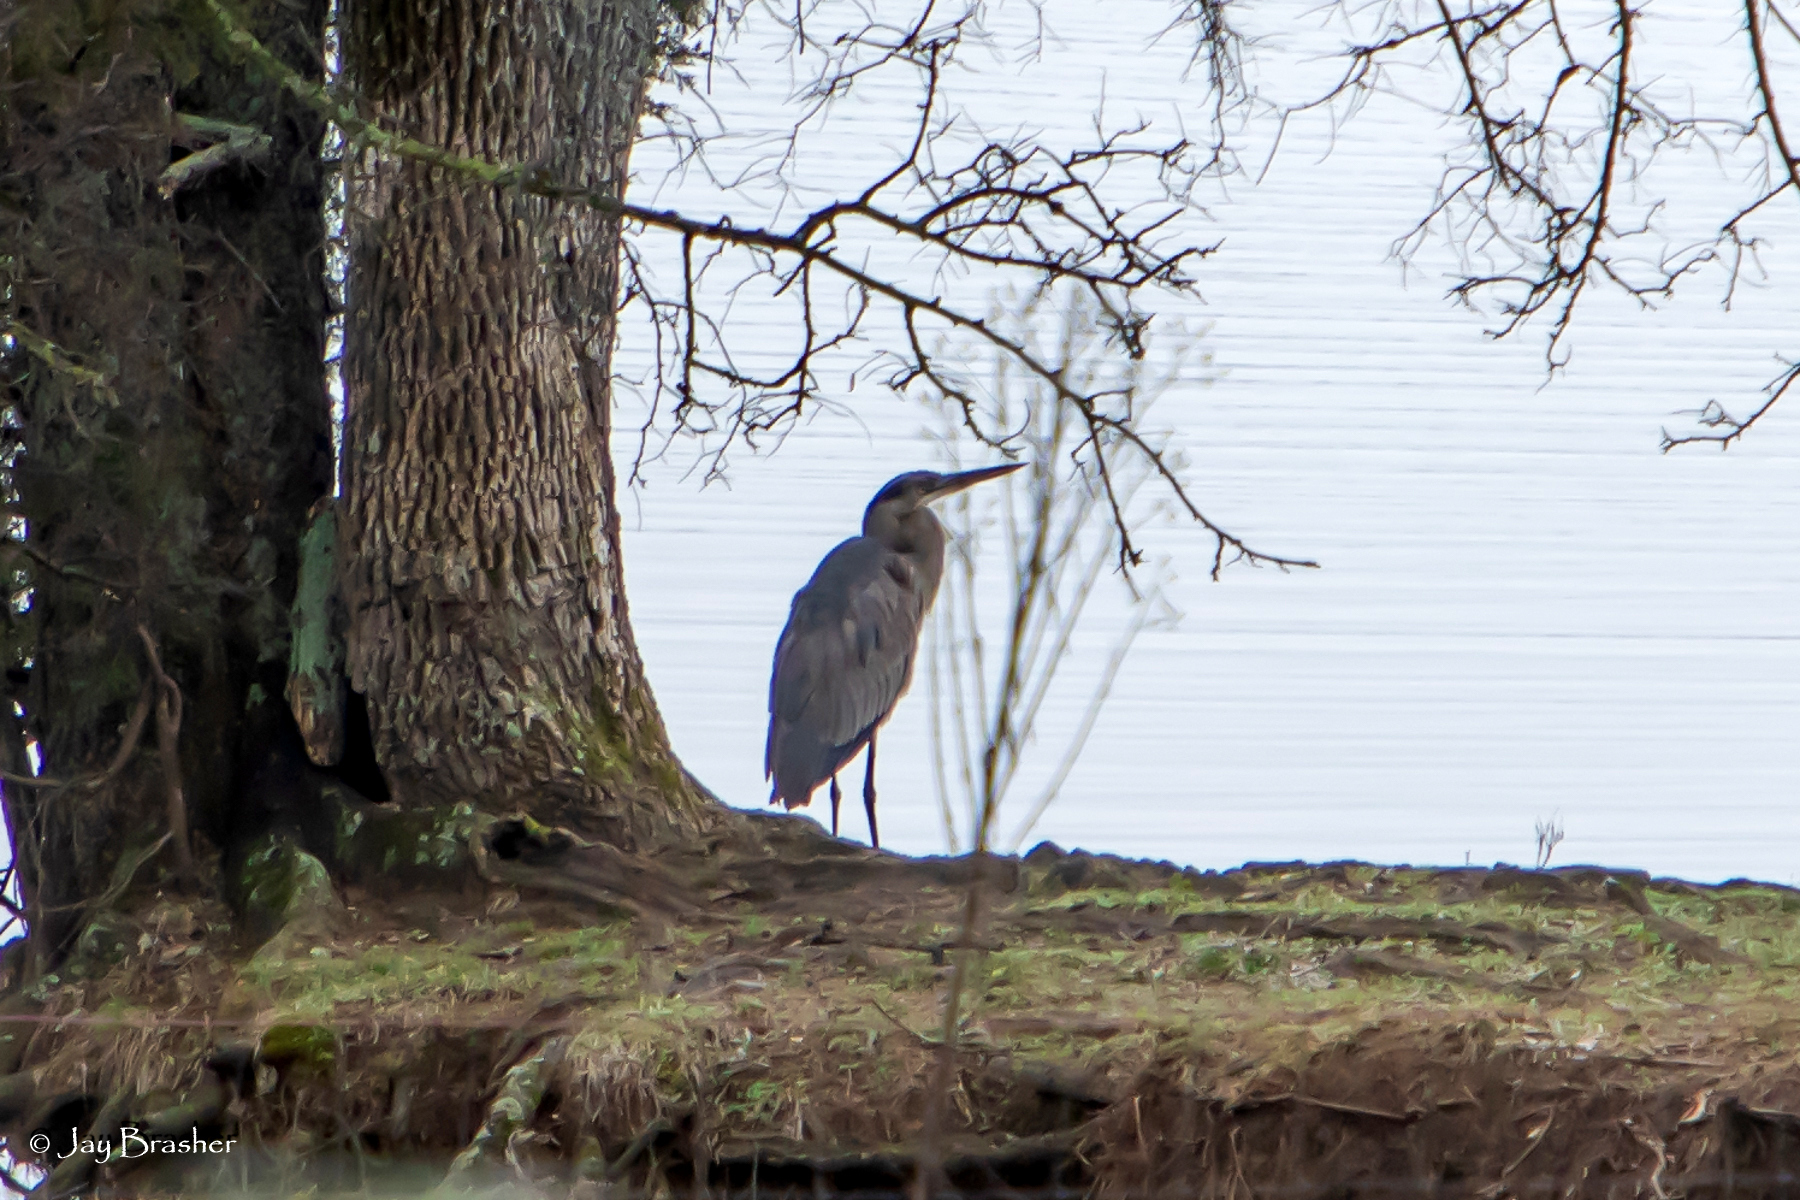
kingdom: Animalia
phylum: Chordata
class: Aves
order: Pelecaniformes
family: Ardeidae
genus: Ardea
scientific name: Ardea herodias
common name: Great blue heron
